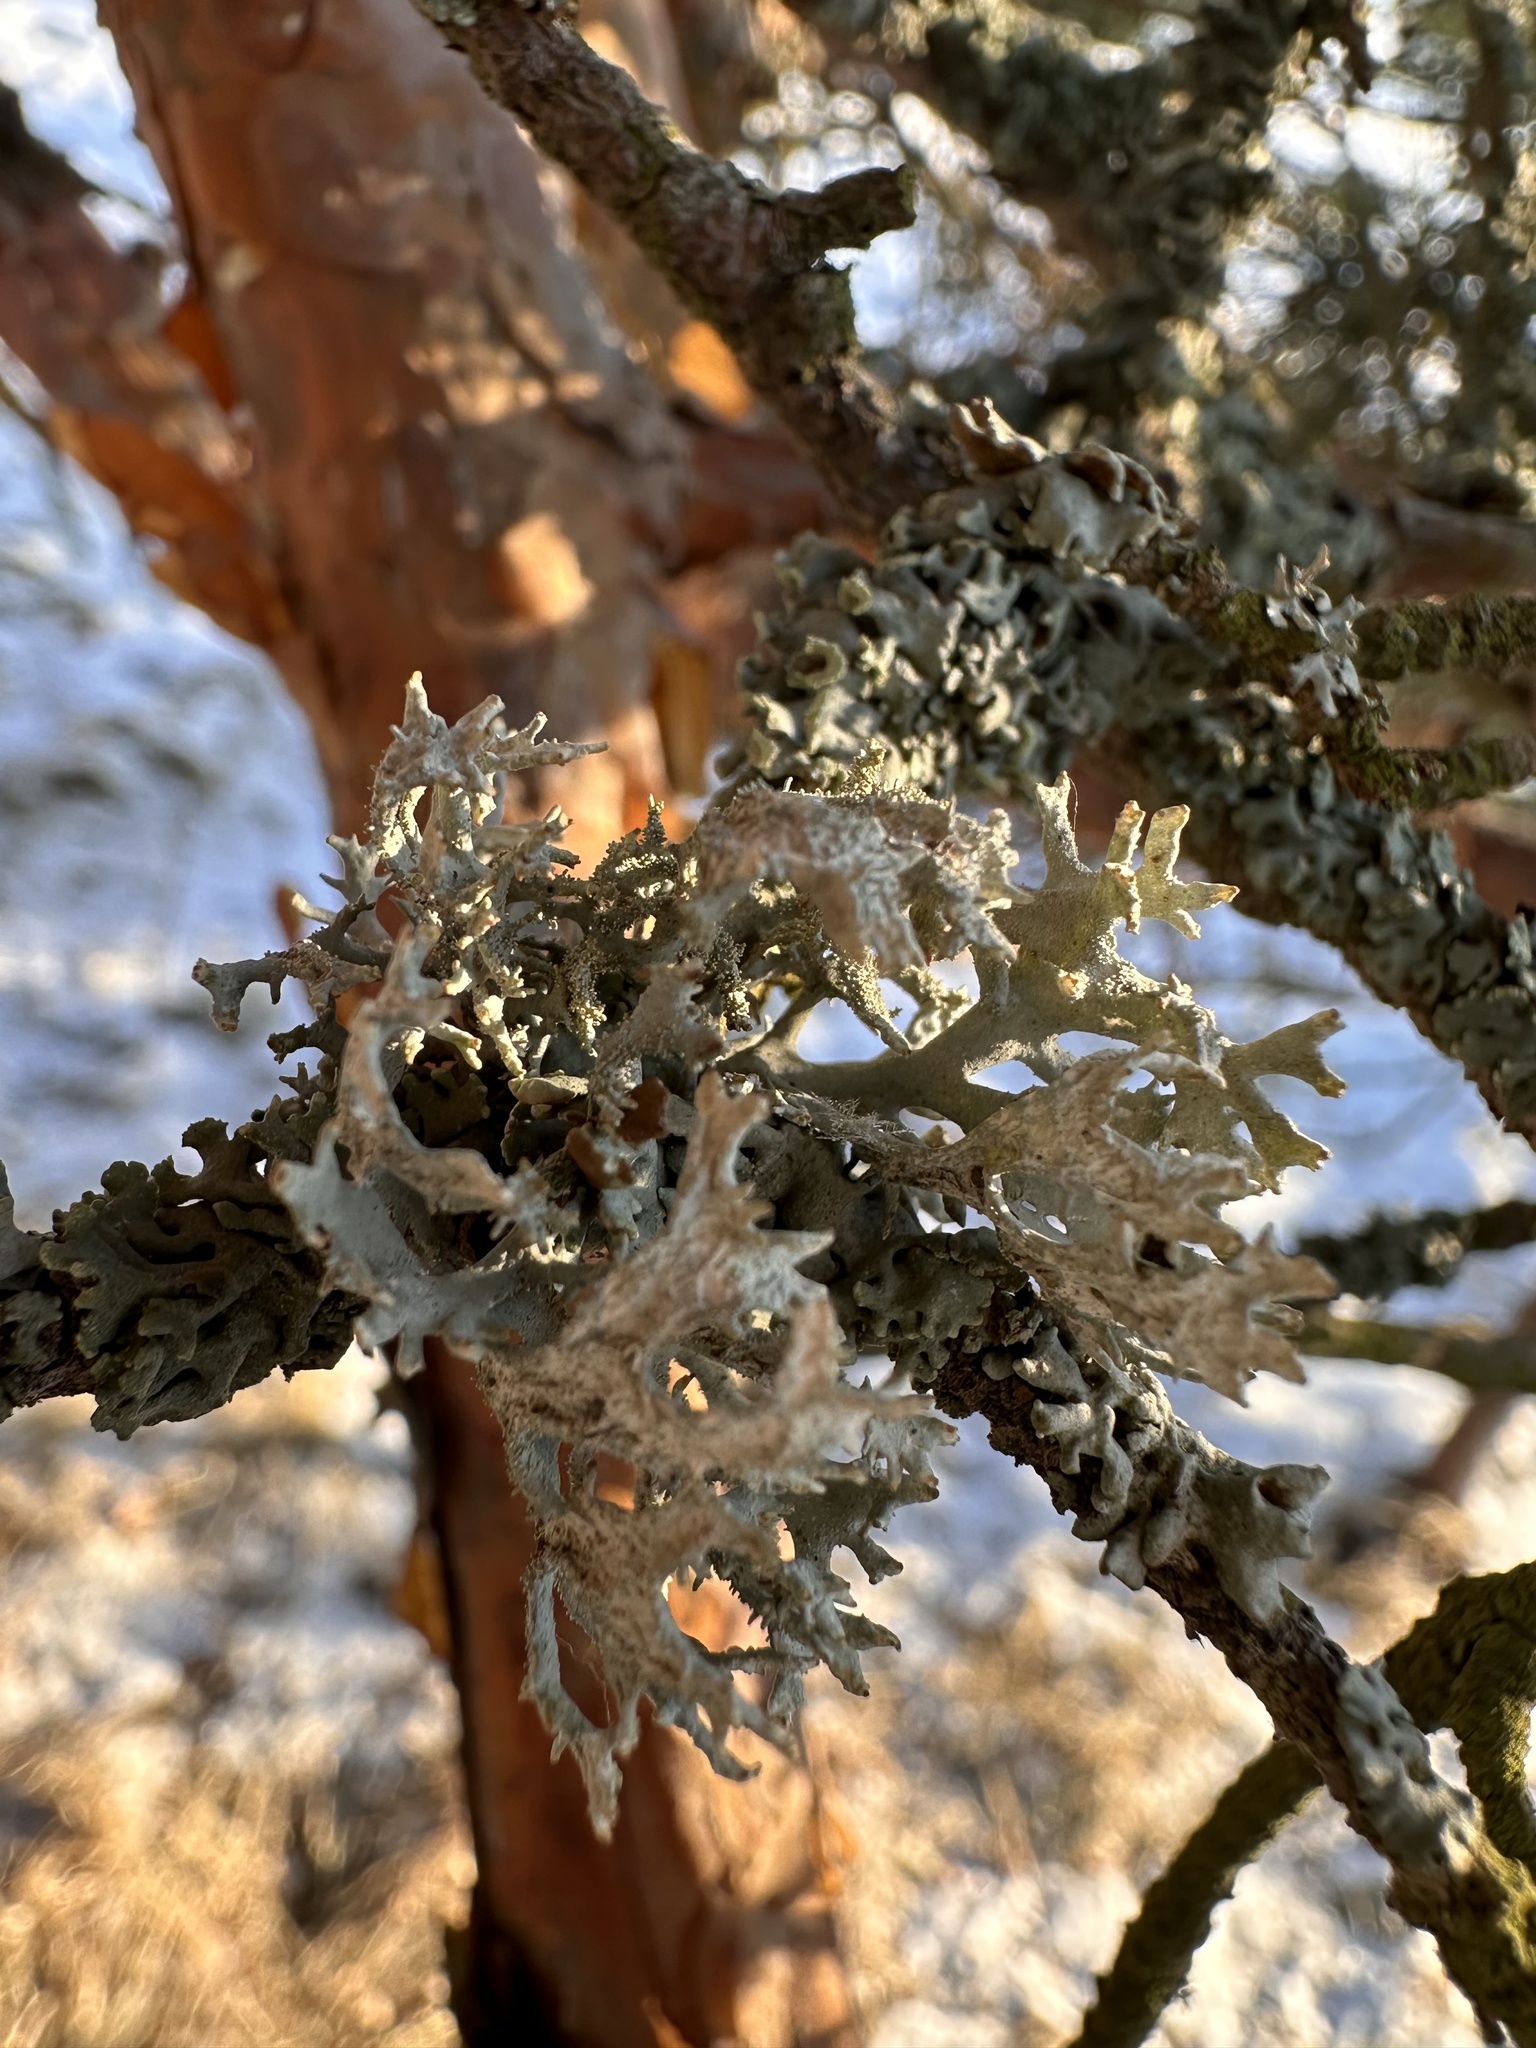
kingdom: Fungi
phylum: Ascomycota
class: Lecanoromycetes
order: Lecanorales
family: Parmeliaceae
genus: Pseudevernia
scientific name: Pseudevernia furfuracea
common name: Tree moss
